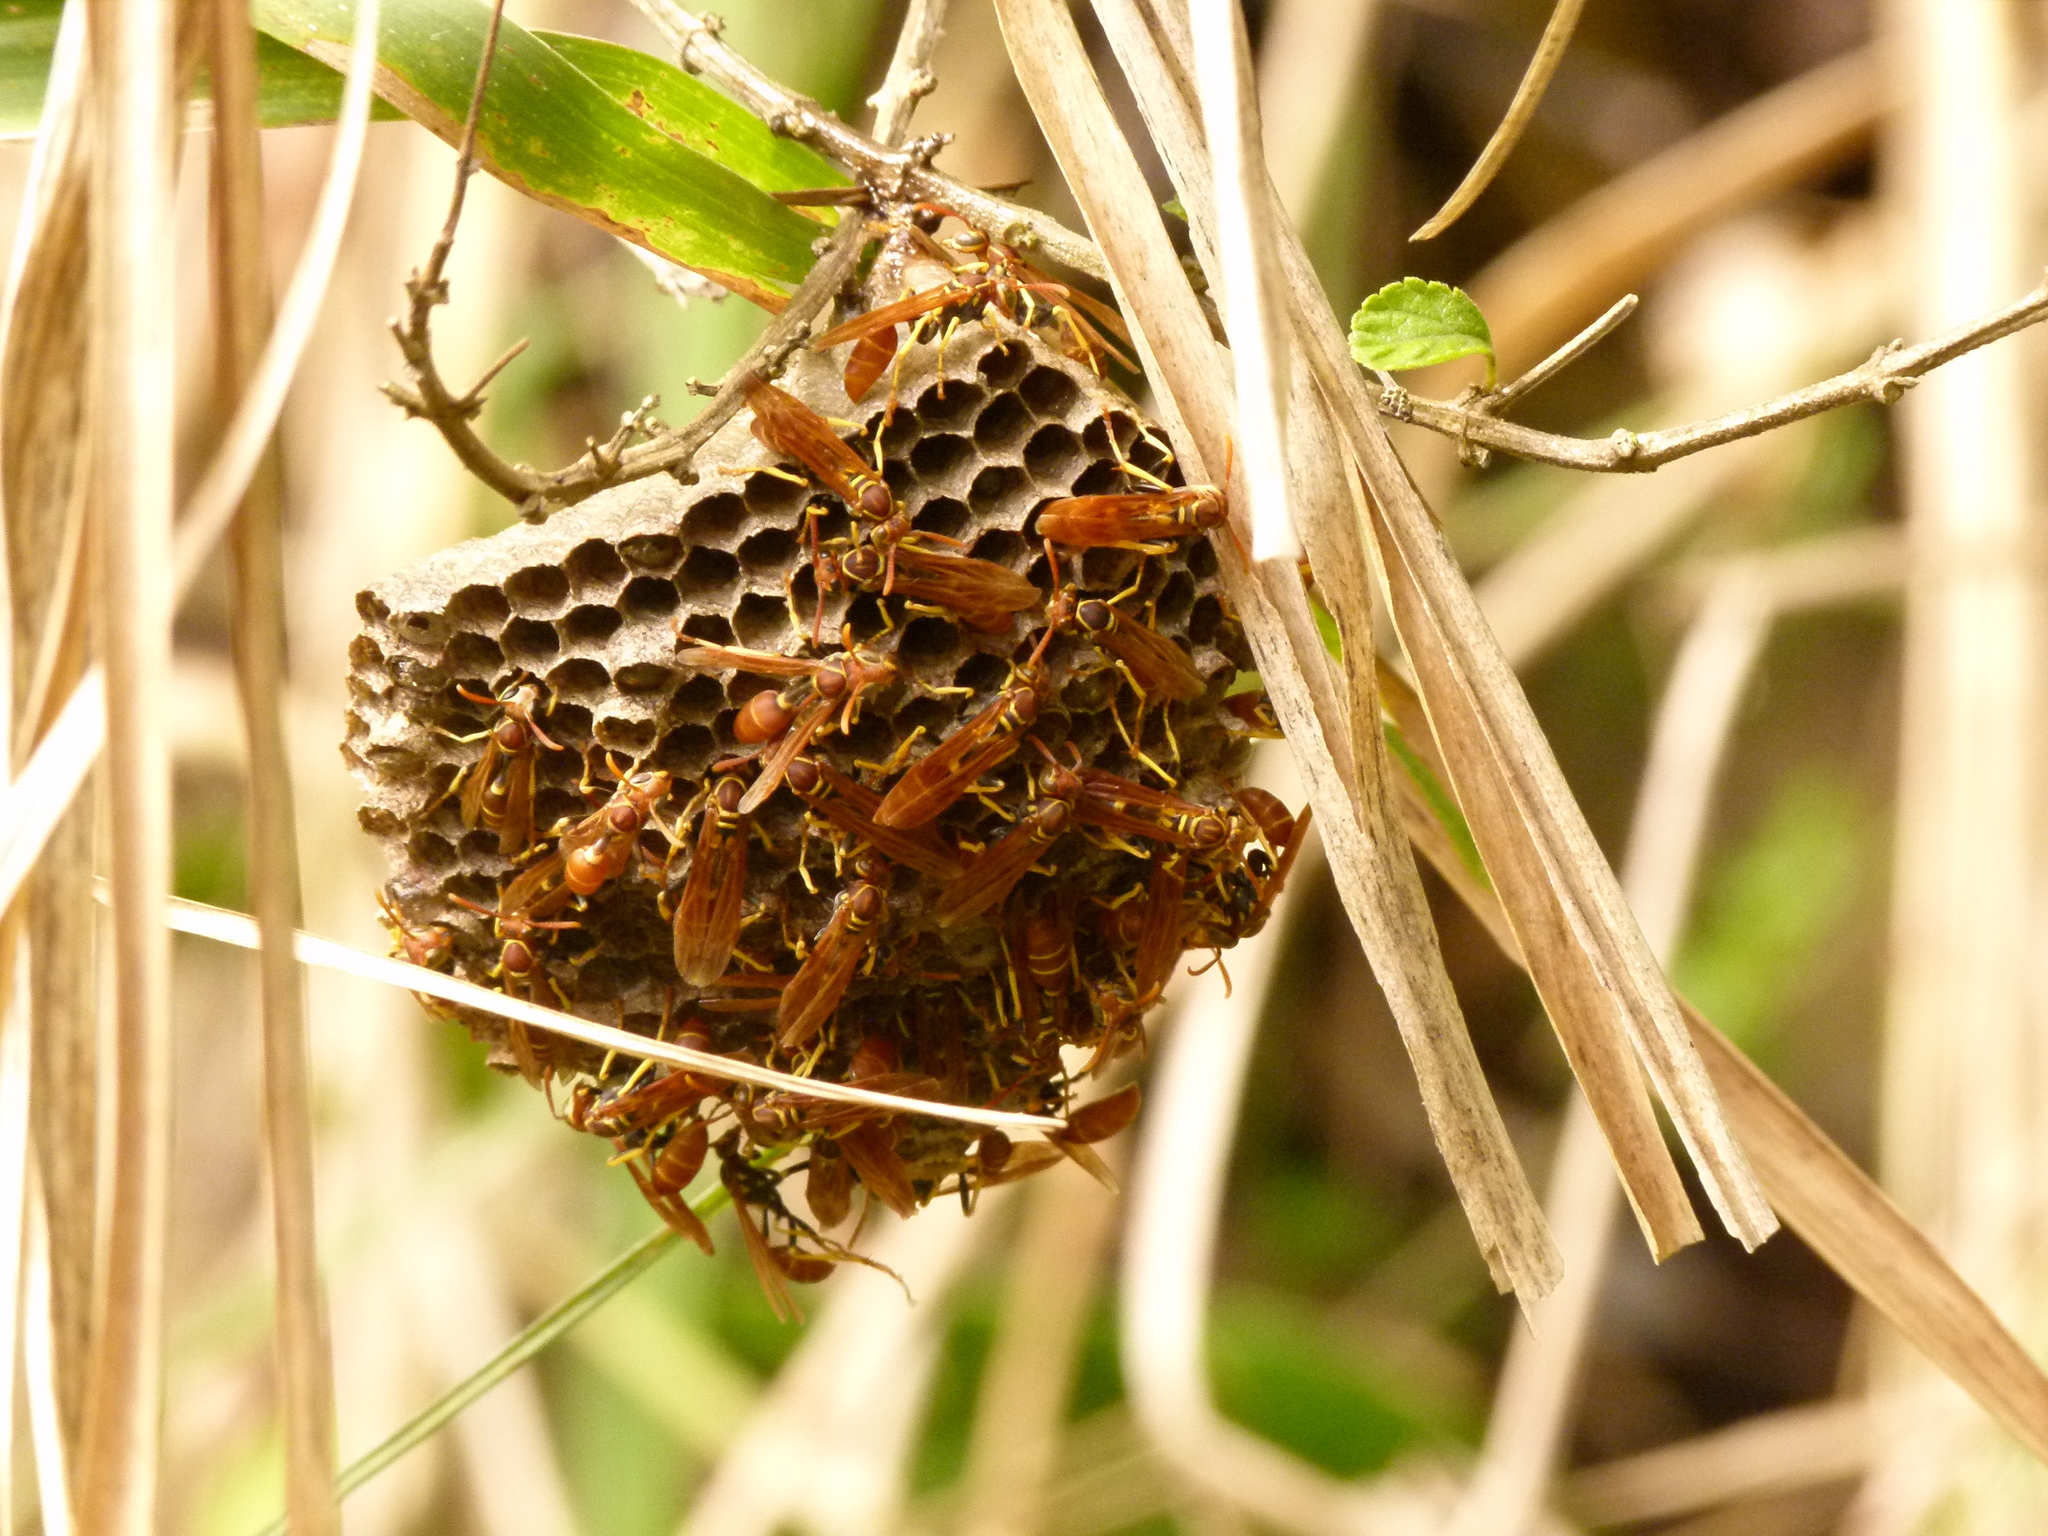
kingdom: Animalia
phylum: Arthropoda
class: Insecta
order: Hymenoptera
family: Vespidae
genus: Mischocyttarus
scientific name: Mischocyttarus phthisicus
